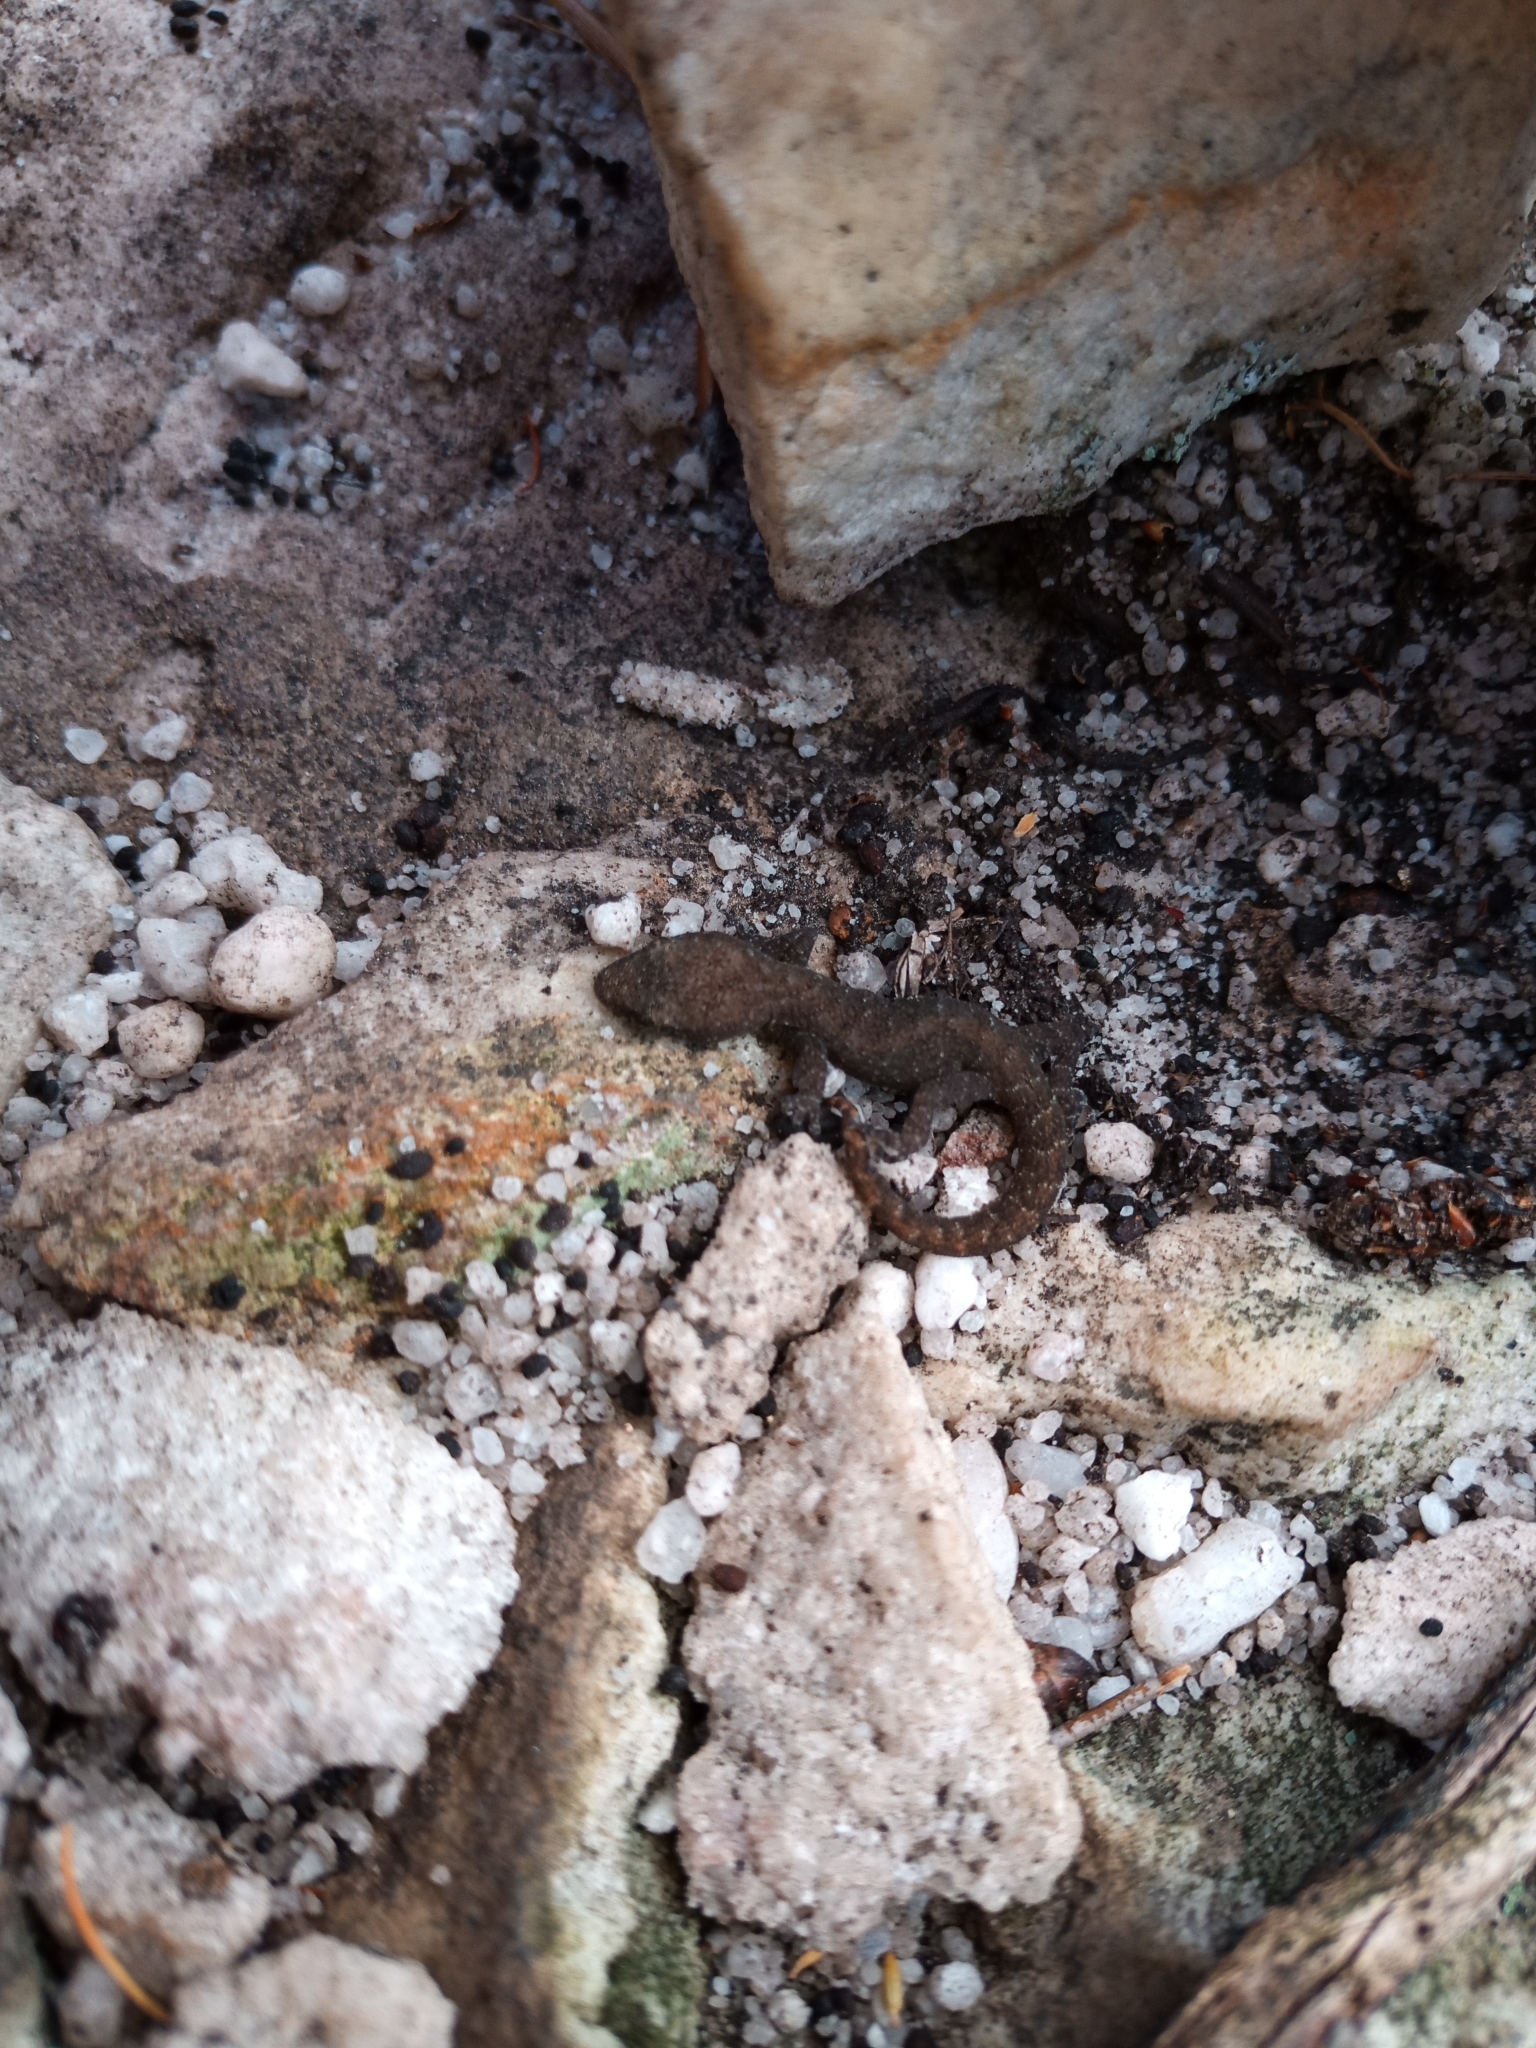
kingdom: Animalia
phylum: Chordata
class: Squamata
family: Gekkonidae
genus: Afrogecko
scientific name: Afrogecko porphyreus
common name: Marbled leaf-toed gecko
